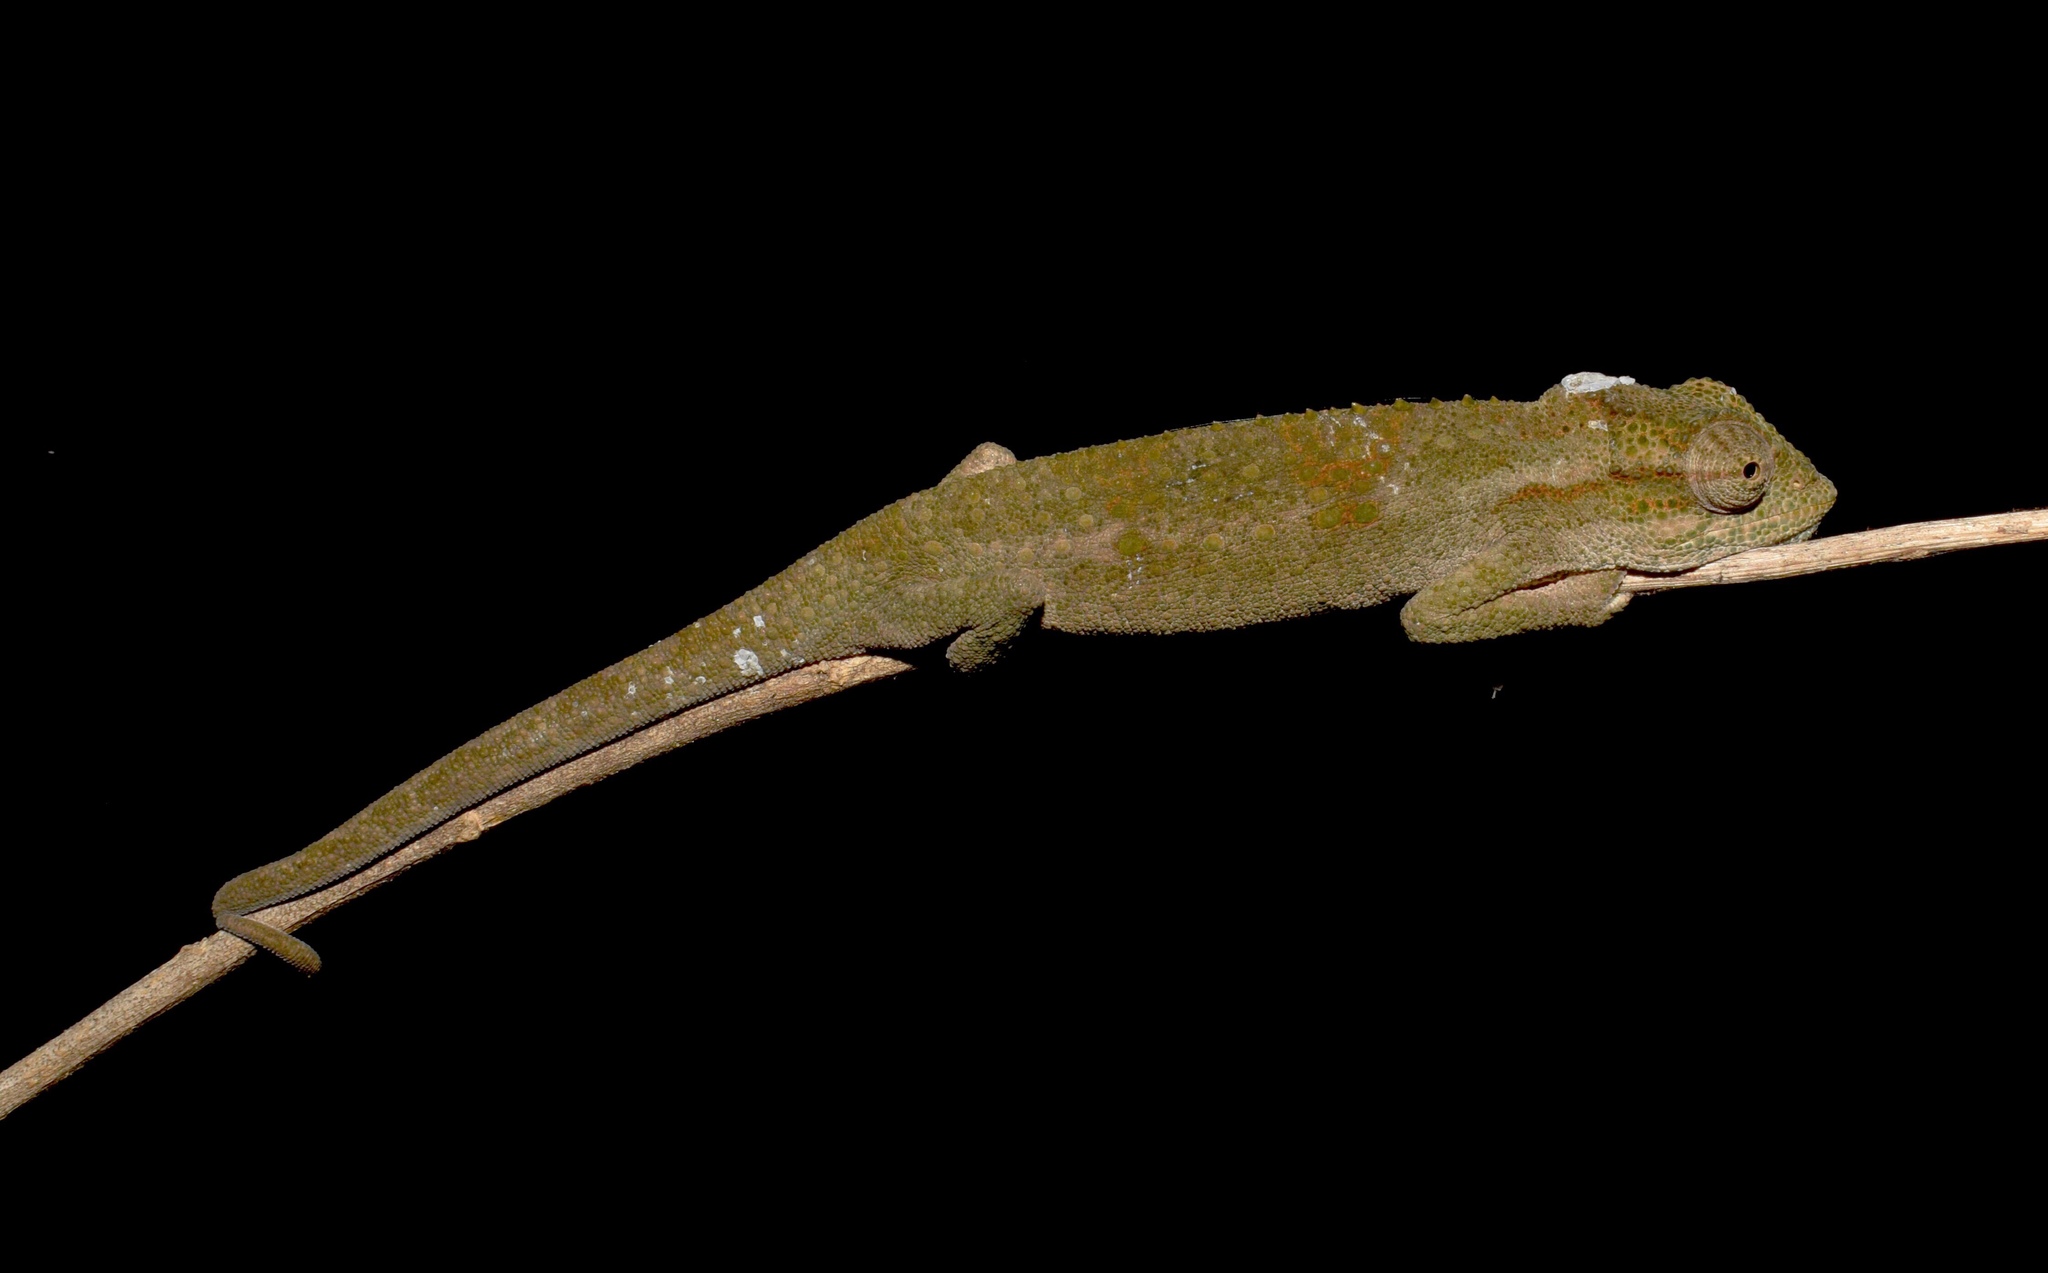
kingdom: Animalia
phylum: Chordata
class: Squamata
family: Chamaeleonidae
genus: Bradypodion
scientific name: Bradypodion melanocephalum
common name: Black-headed dwarf chameleon
